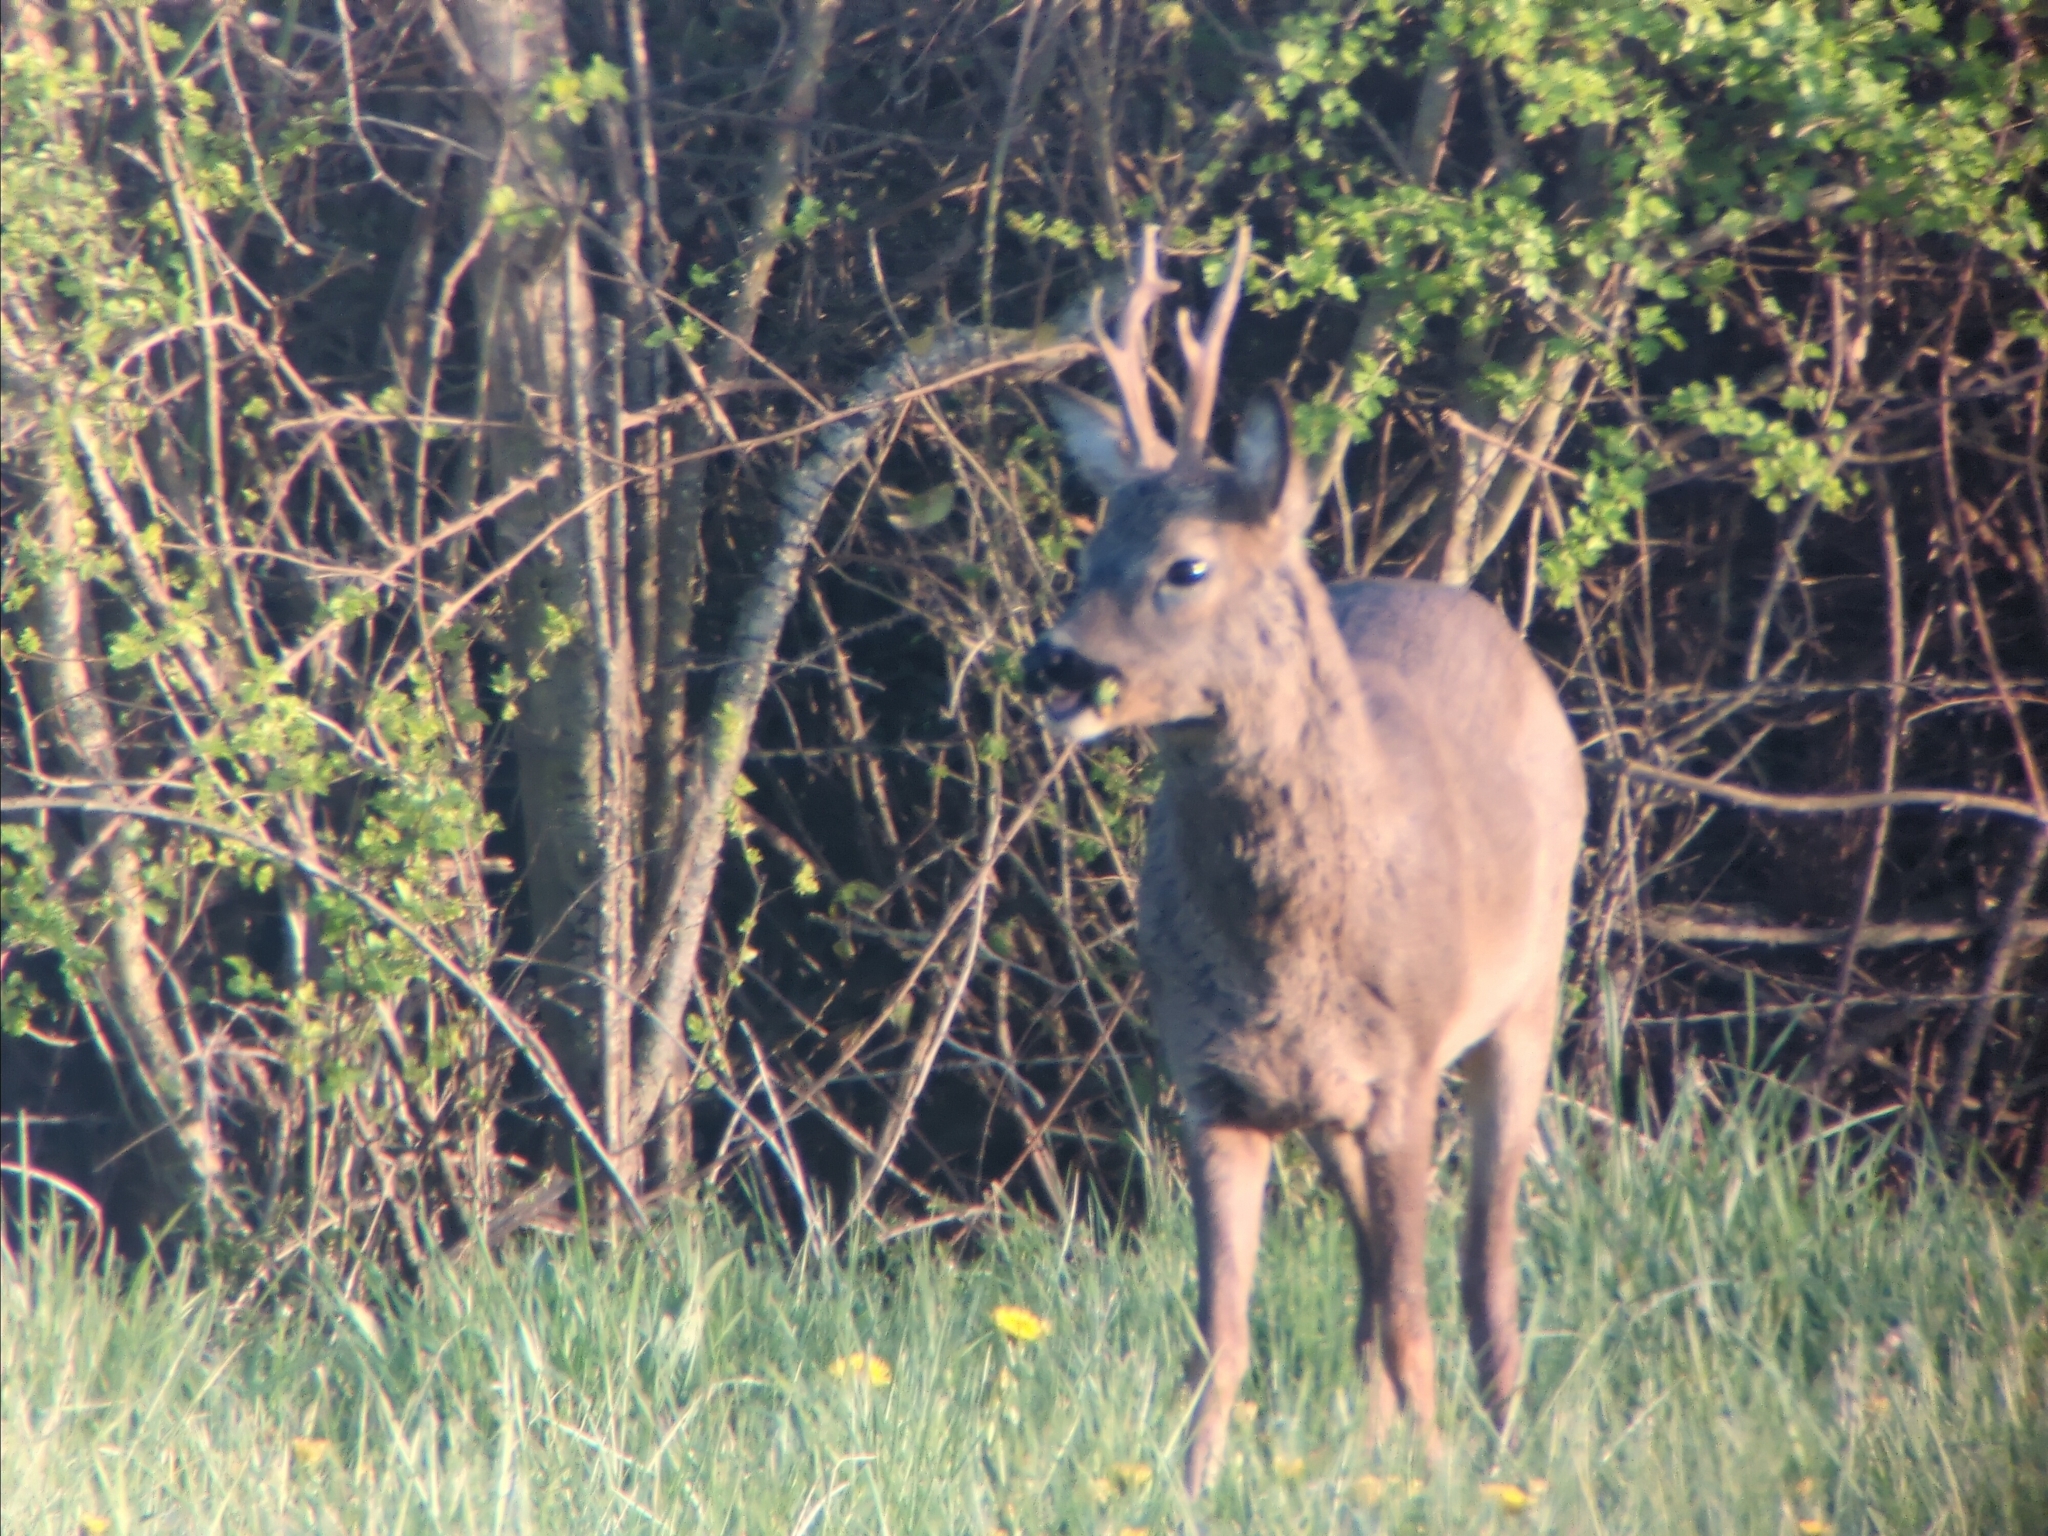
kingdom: Animalia
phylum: Chordata
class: Mammalia
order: Artiodactyla
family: Cervidae
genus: Capreolus
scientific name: Capreolus capreolus
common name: Western roe deer
